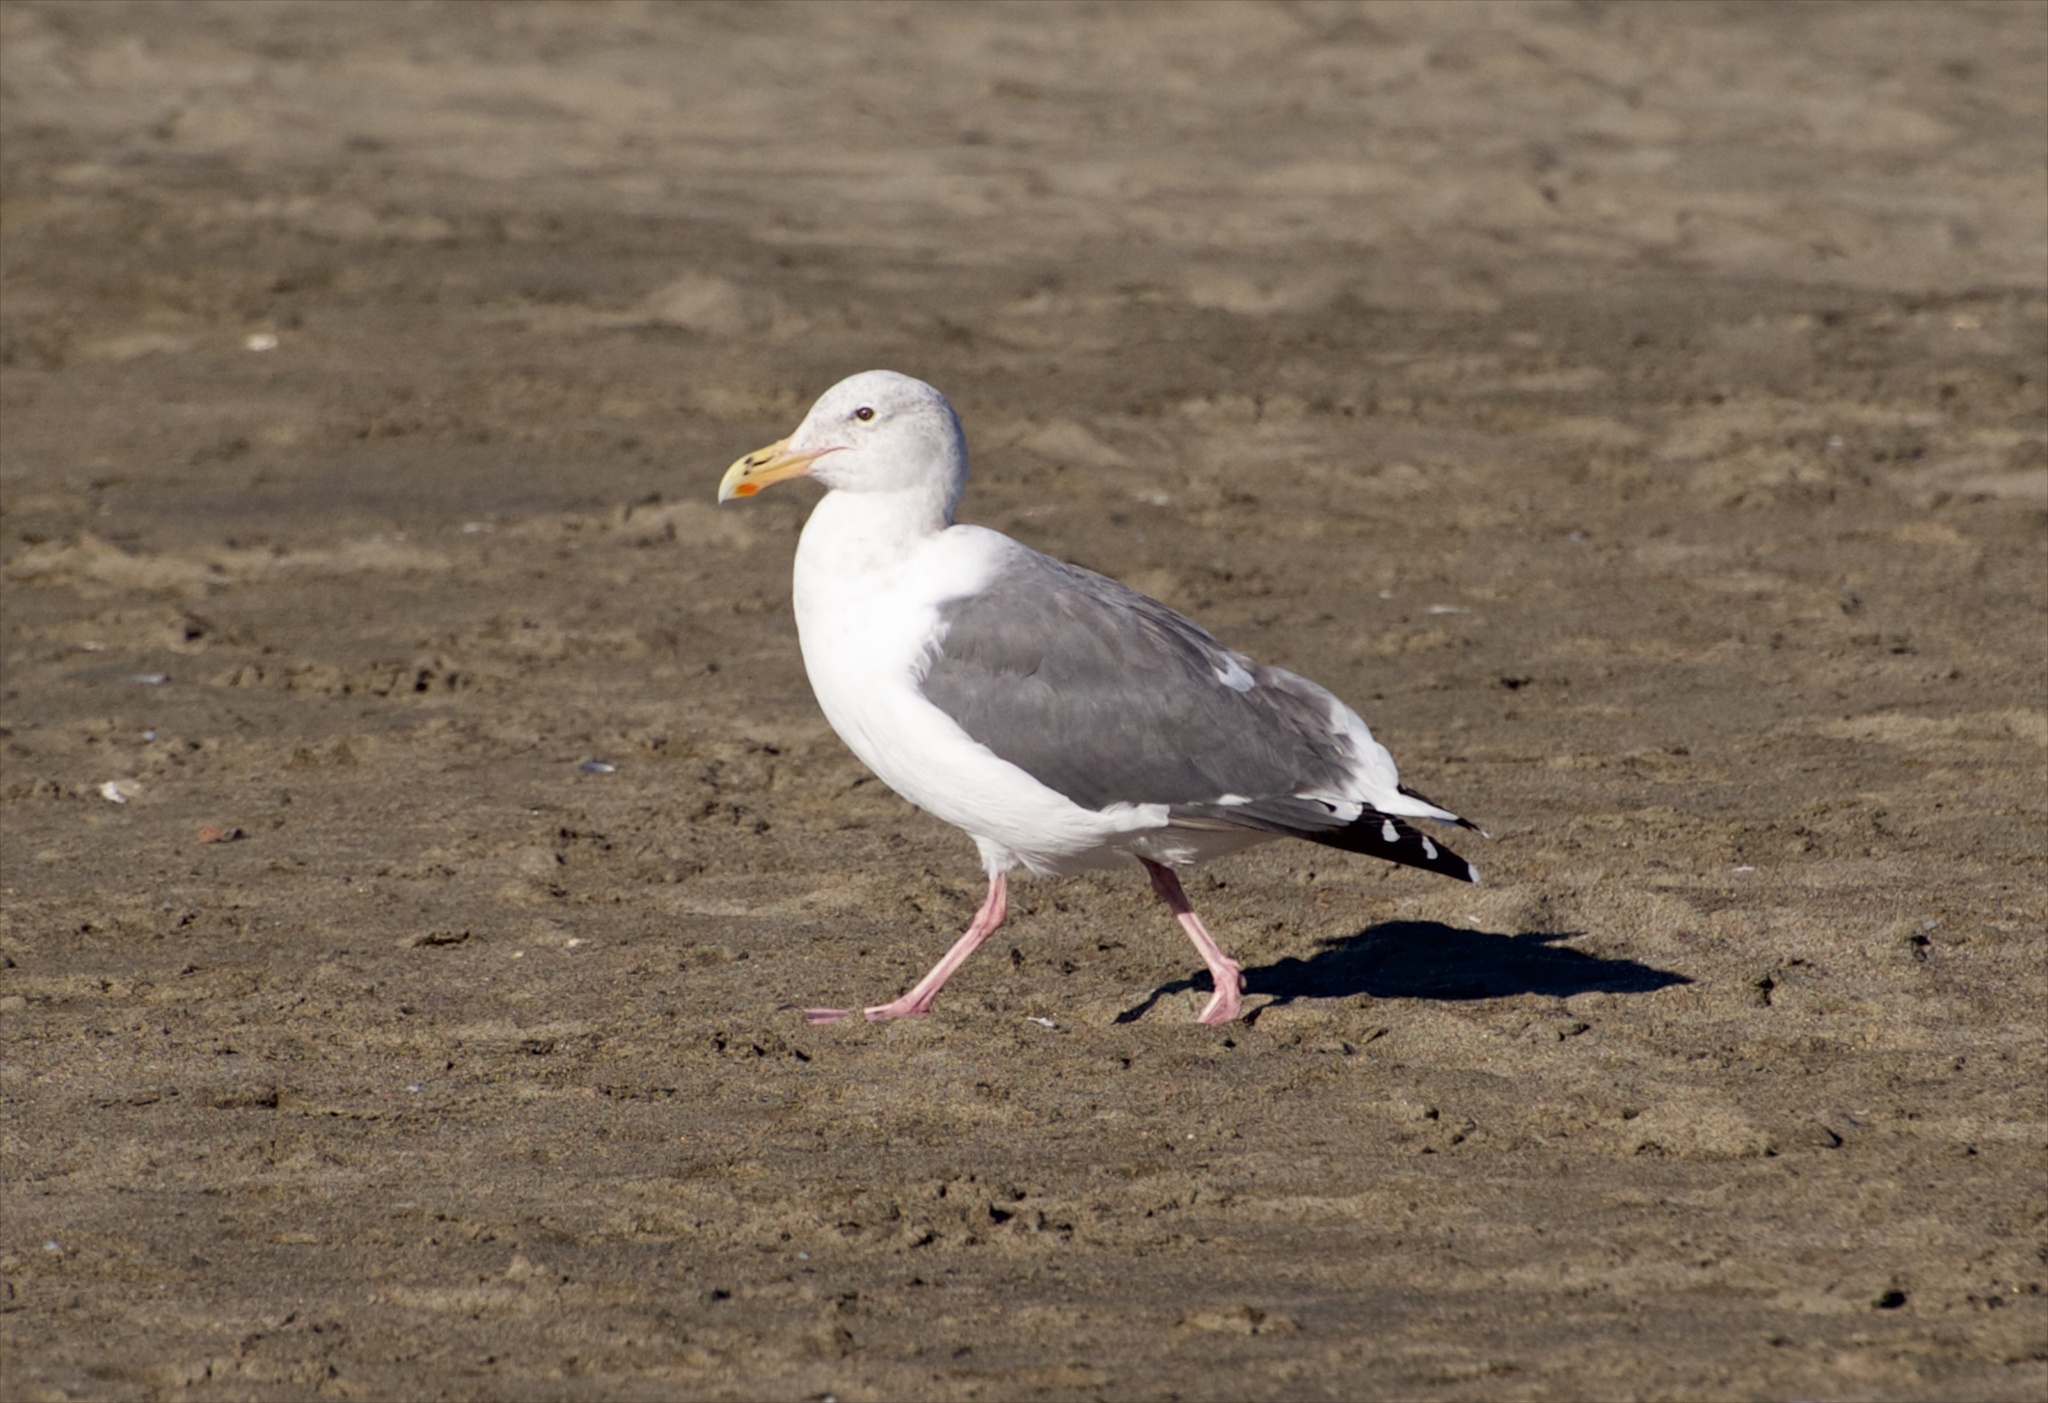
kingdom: Animalia
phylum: Chordata
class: Aves
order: Charadriiformes
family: Laridae
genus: Larus
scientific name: Larus occidentalis
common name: Western gull
